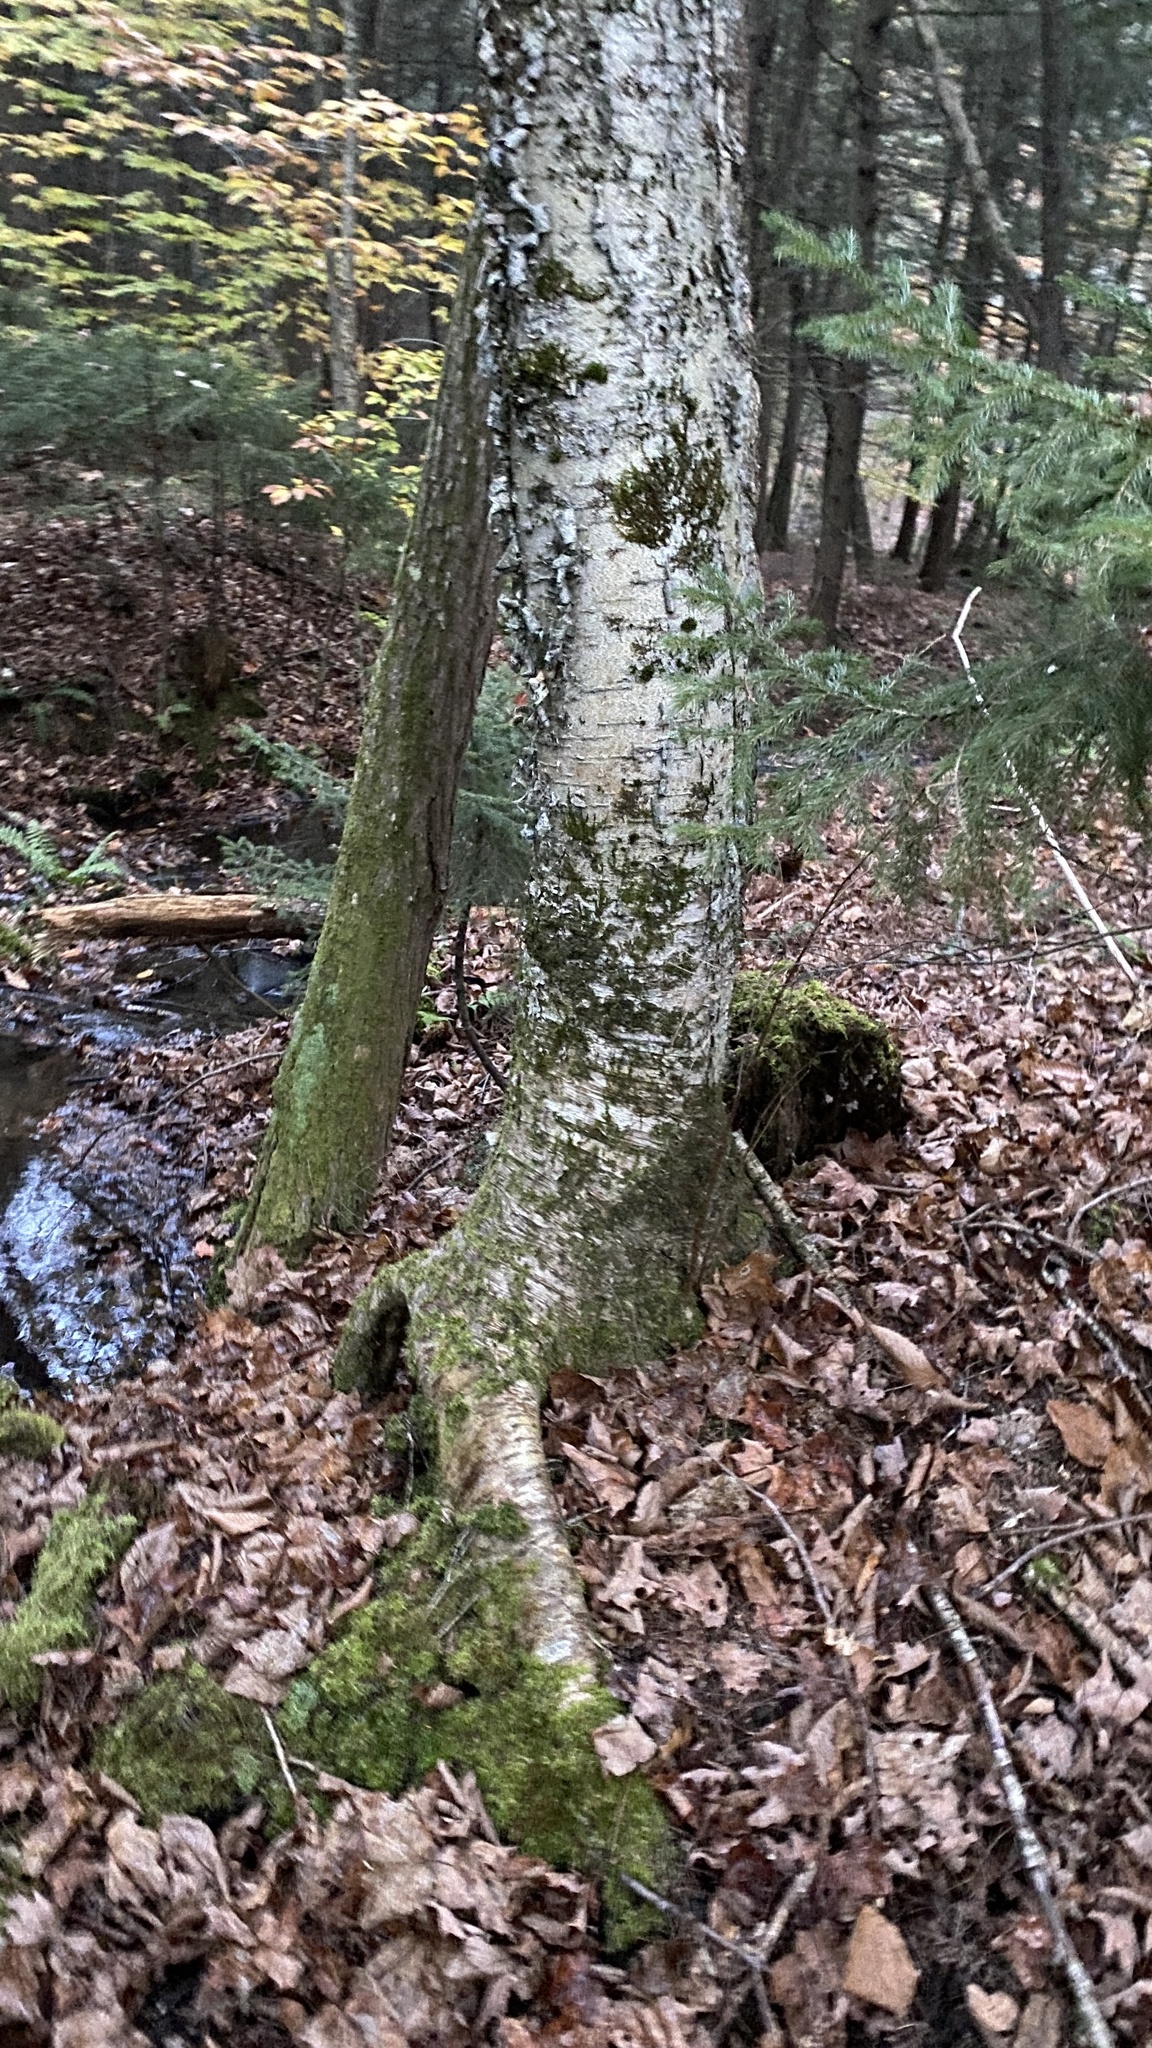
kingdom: Plantae
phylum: Tracheophyta
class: Magnoliopsida
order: Fagales
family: Betulaceae
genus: Betula
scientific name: Betula alleghaniensis
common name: Yellow birch
